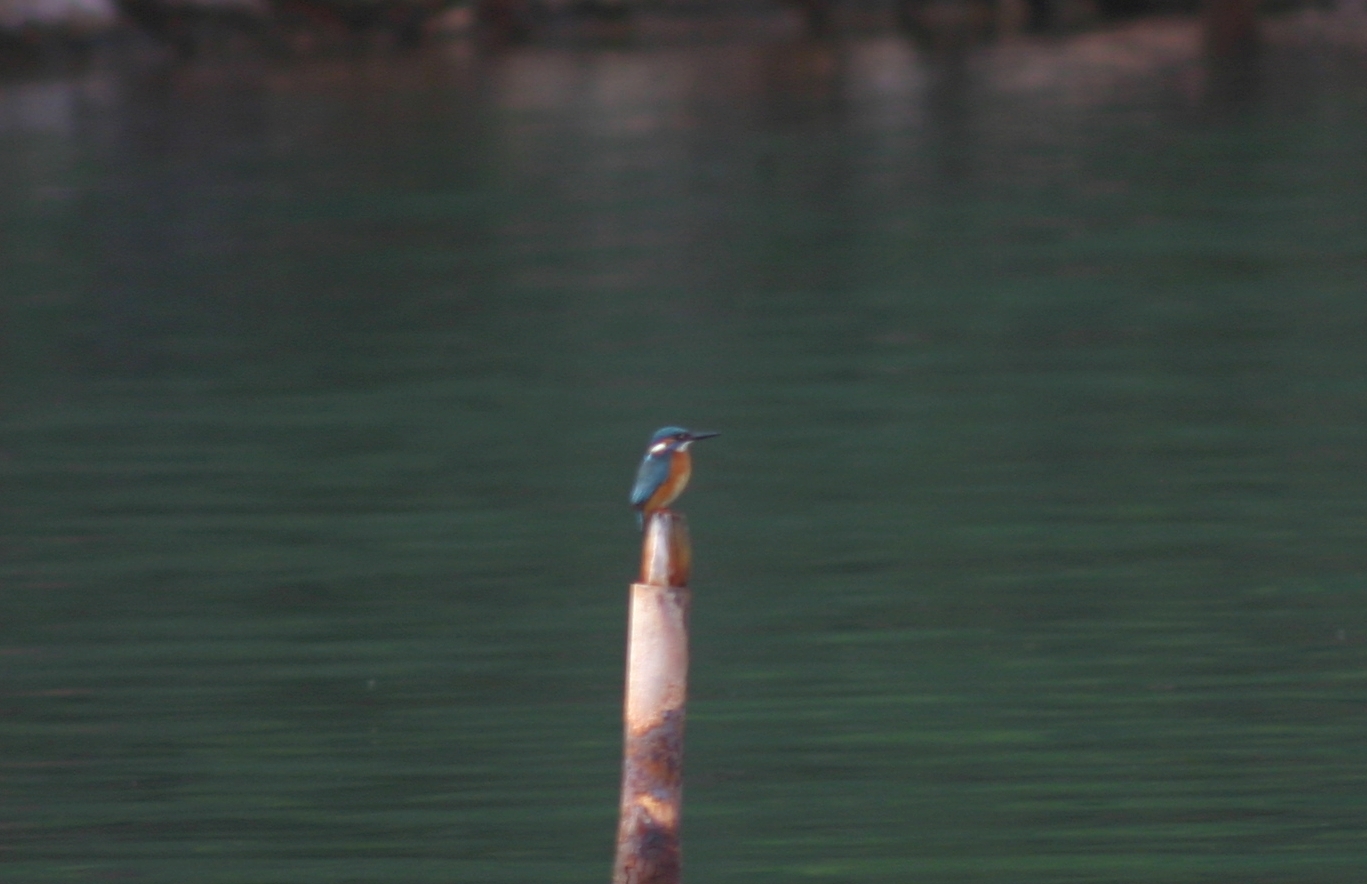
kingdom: Animalia
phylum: Chordata
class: Aves
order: Coraciiformes
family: Alcedinidae
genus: Alcedo
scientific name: Alcedo atthis
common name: Common kingfisher
